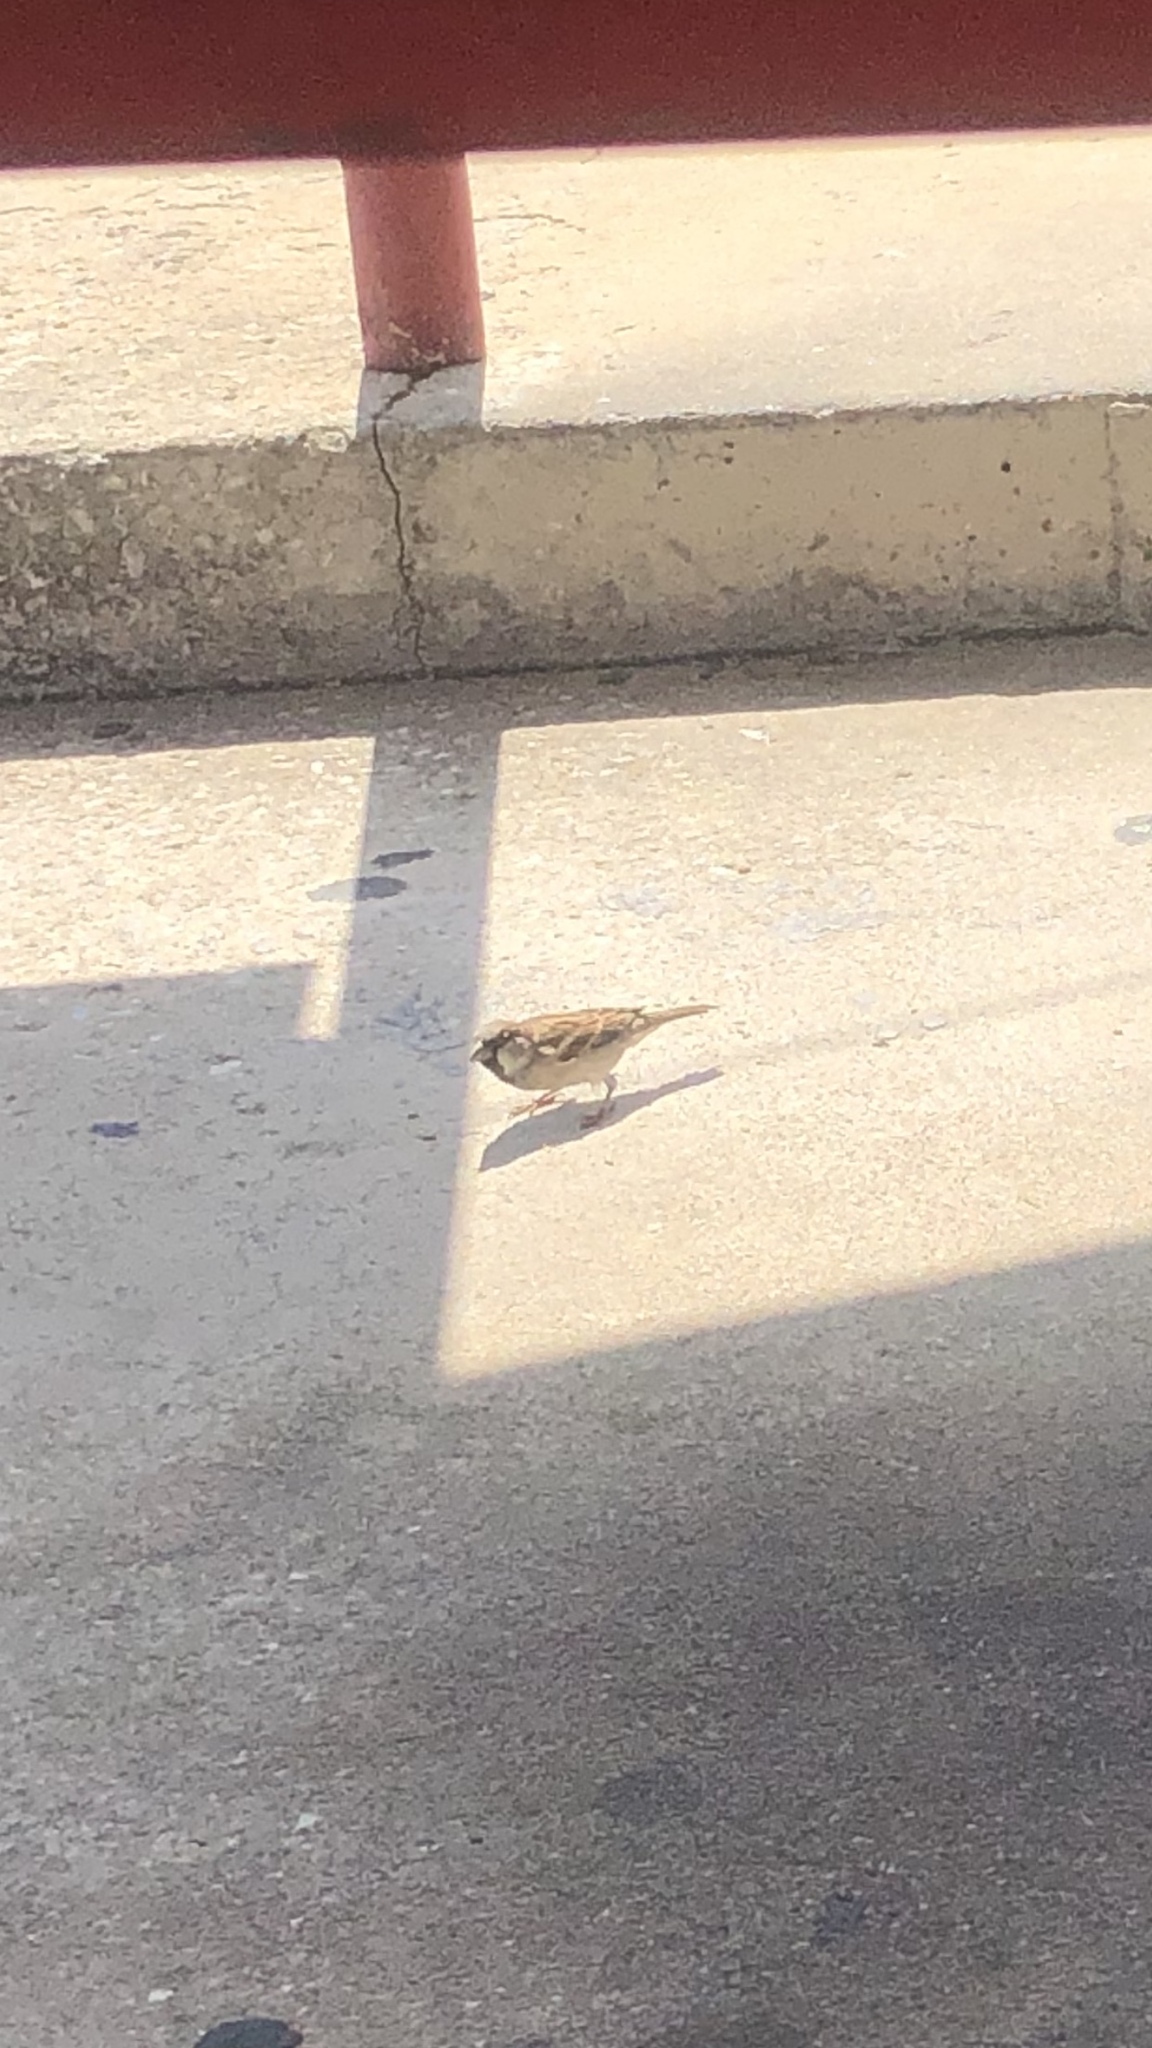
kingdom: Animalia
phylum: Chordata
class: Aves
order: Passeriformes
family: Passeridae
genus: Passer
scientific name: Passer domesticus
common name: House sparrow
